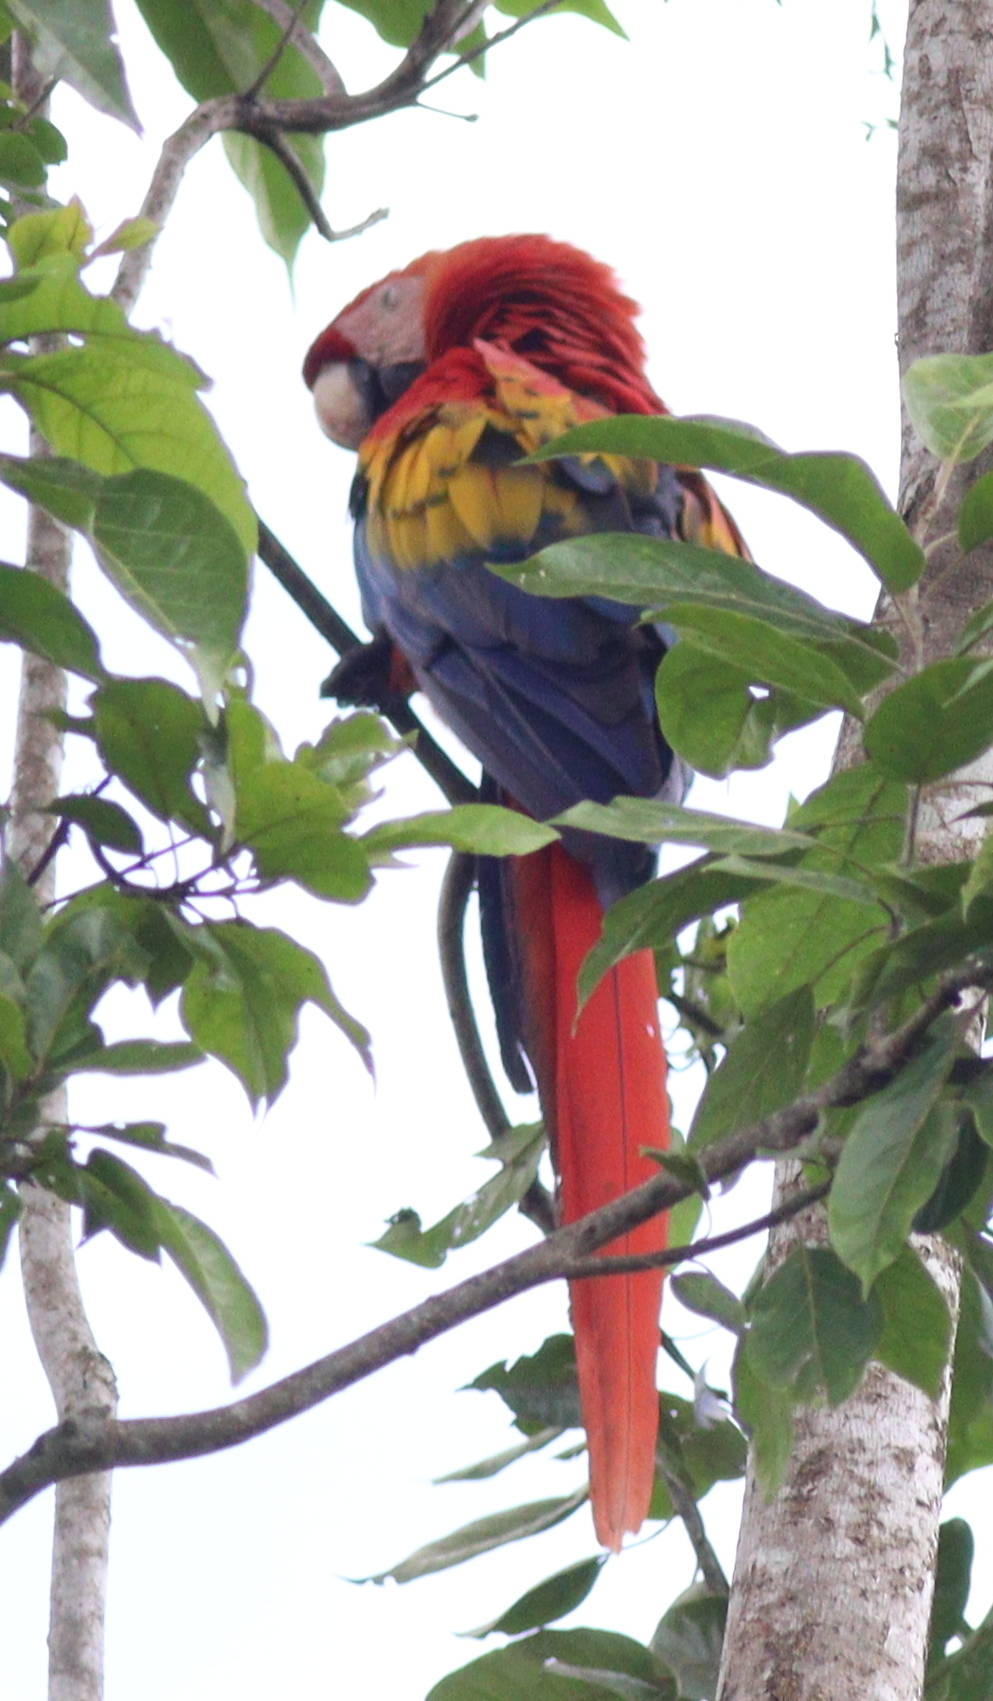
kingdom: Animalia
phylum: Chordata
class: Aves
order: Psittaciformes
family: Psittacidae
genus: Ara
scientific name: Ara macao
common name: Scarlet macaw
